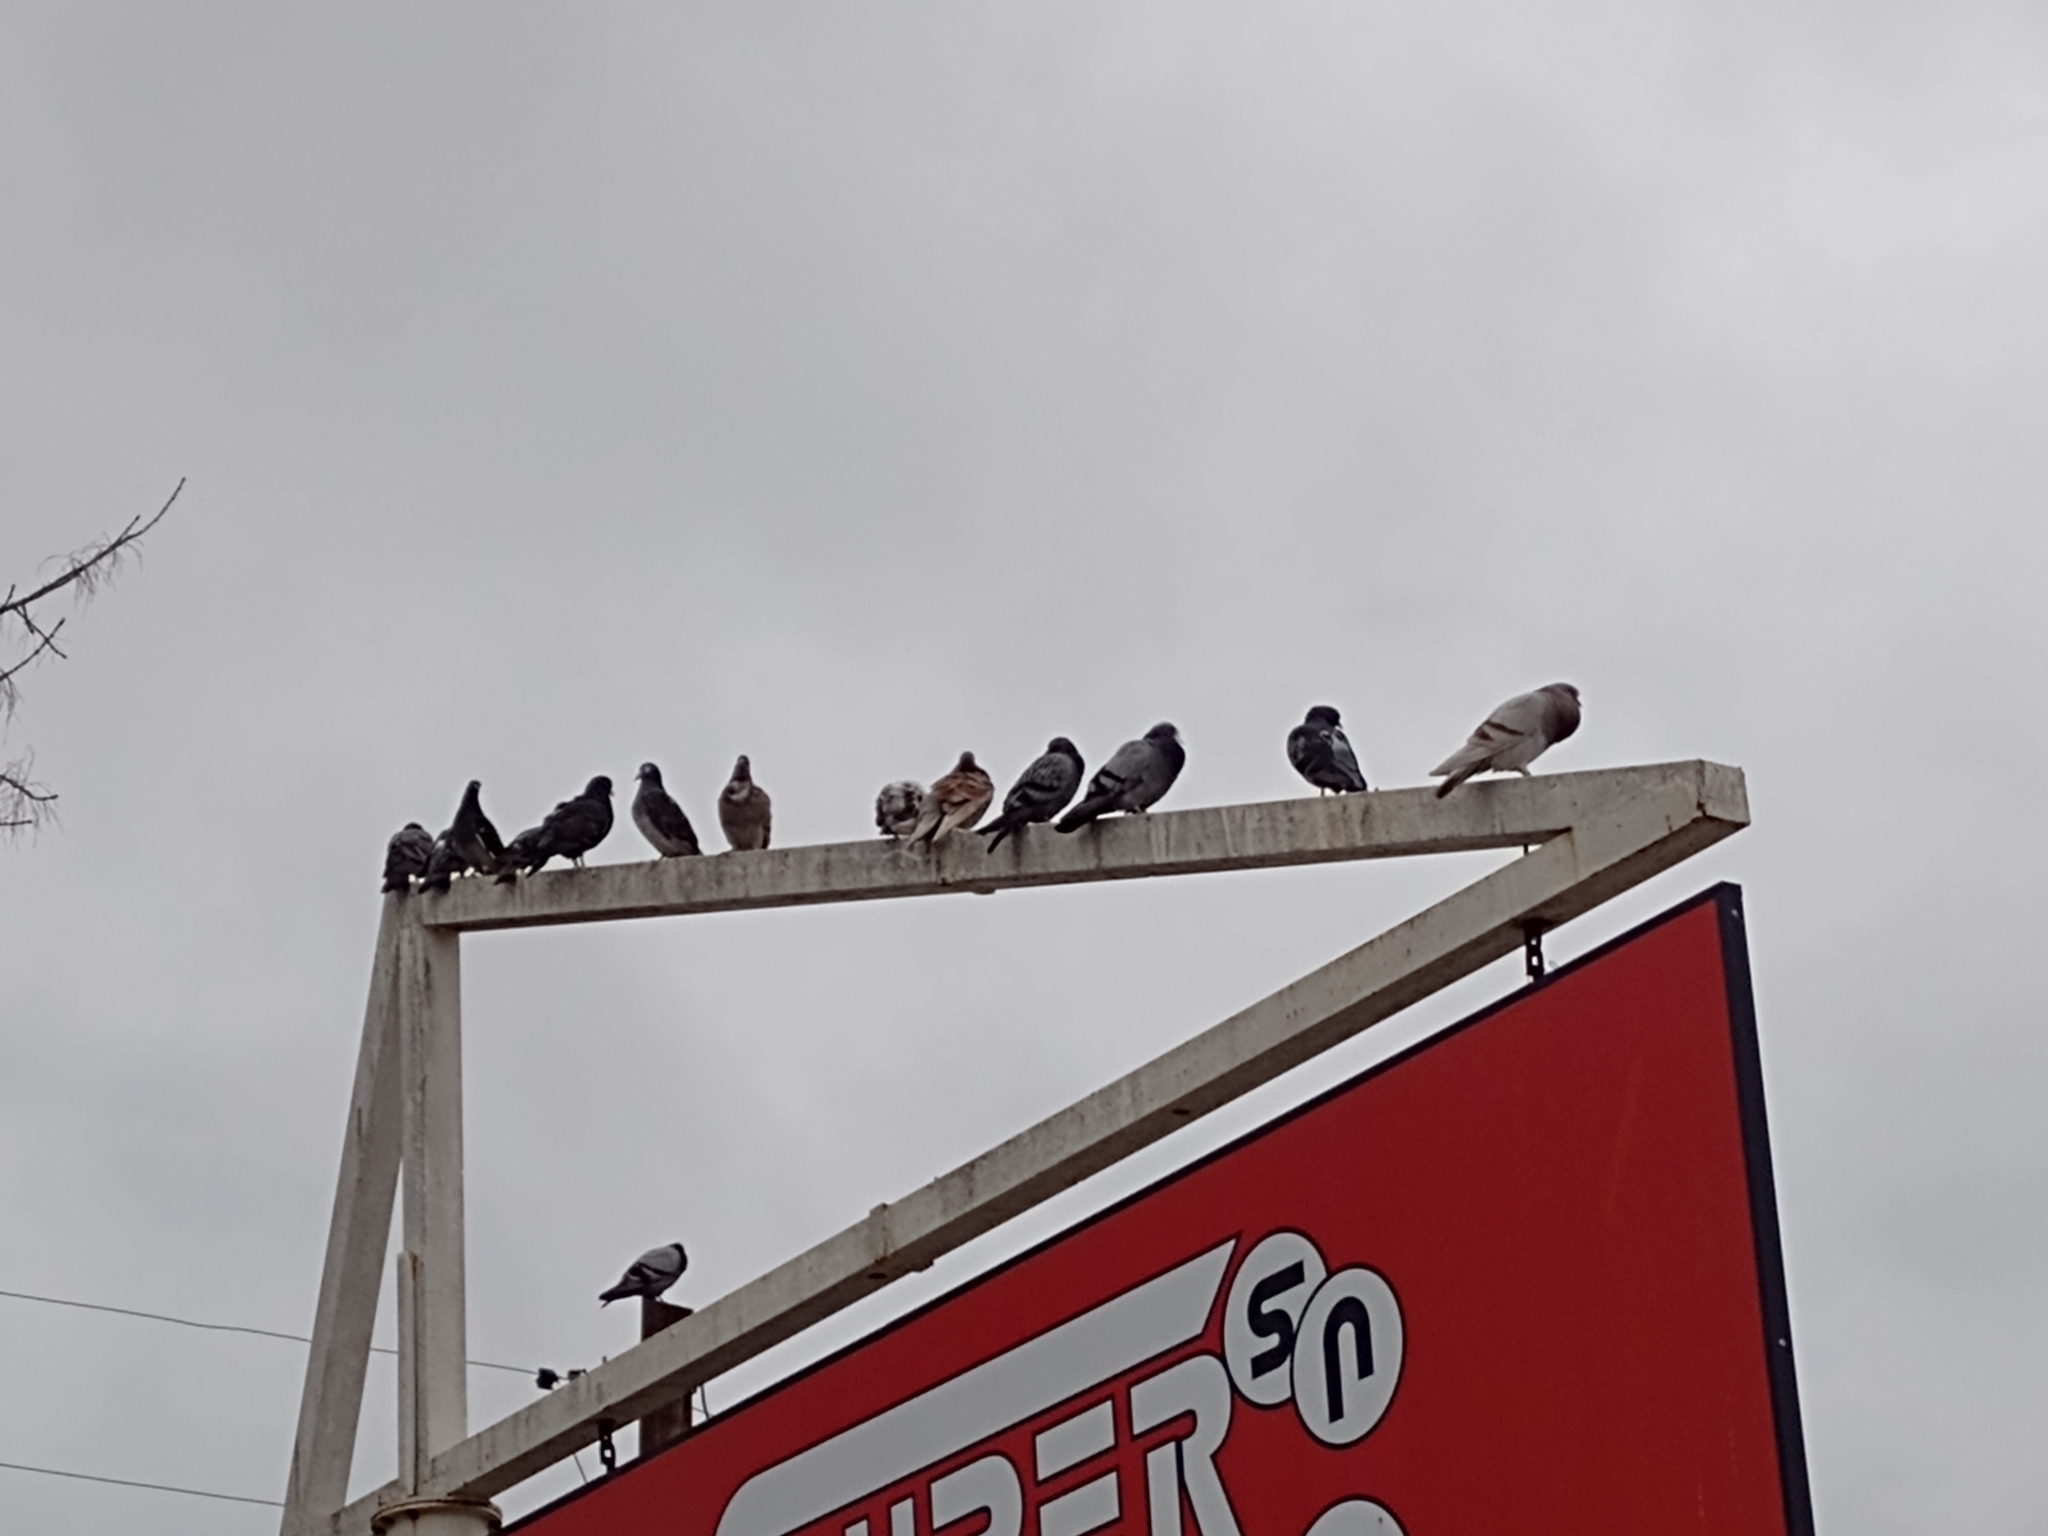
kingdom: Animalia
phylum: Chordata
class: Aves
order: Columbiformes
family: Columbidae
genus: Columba
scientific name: Columba livia
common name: Rock pigeon
